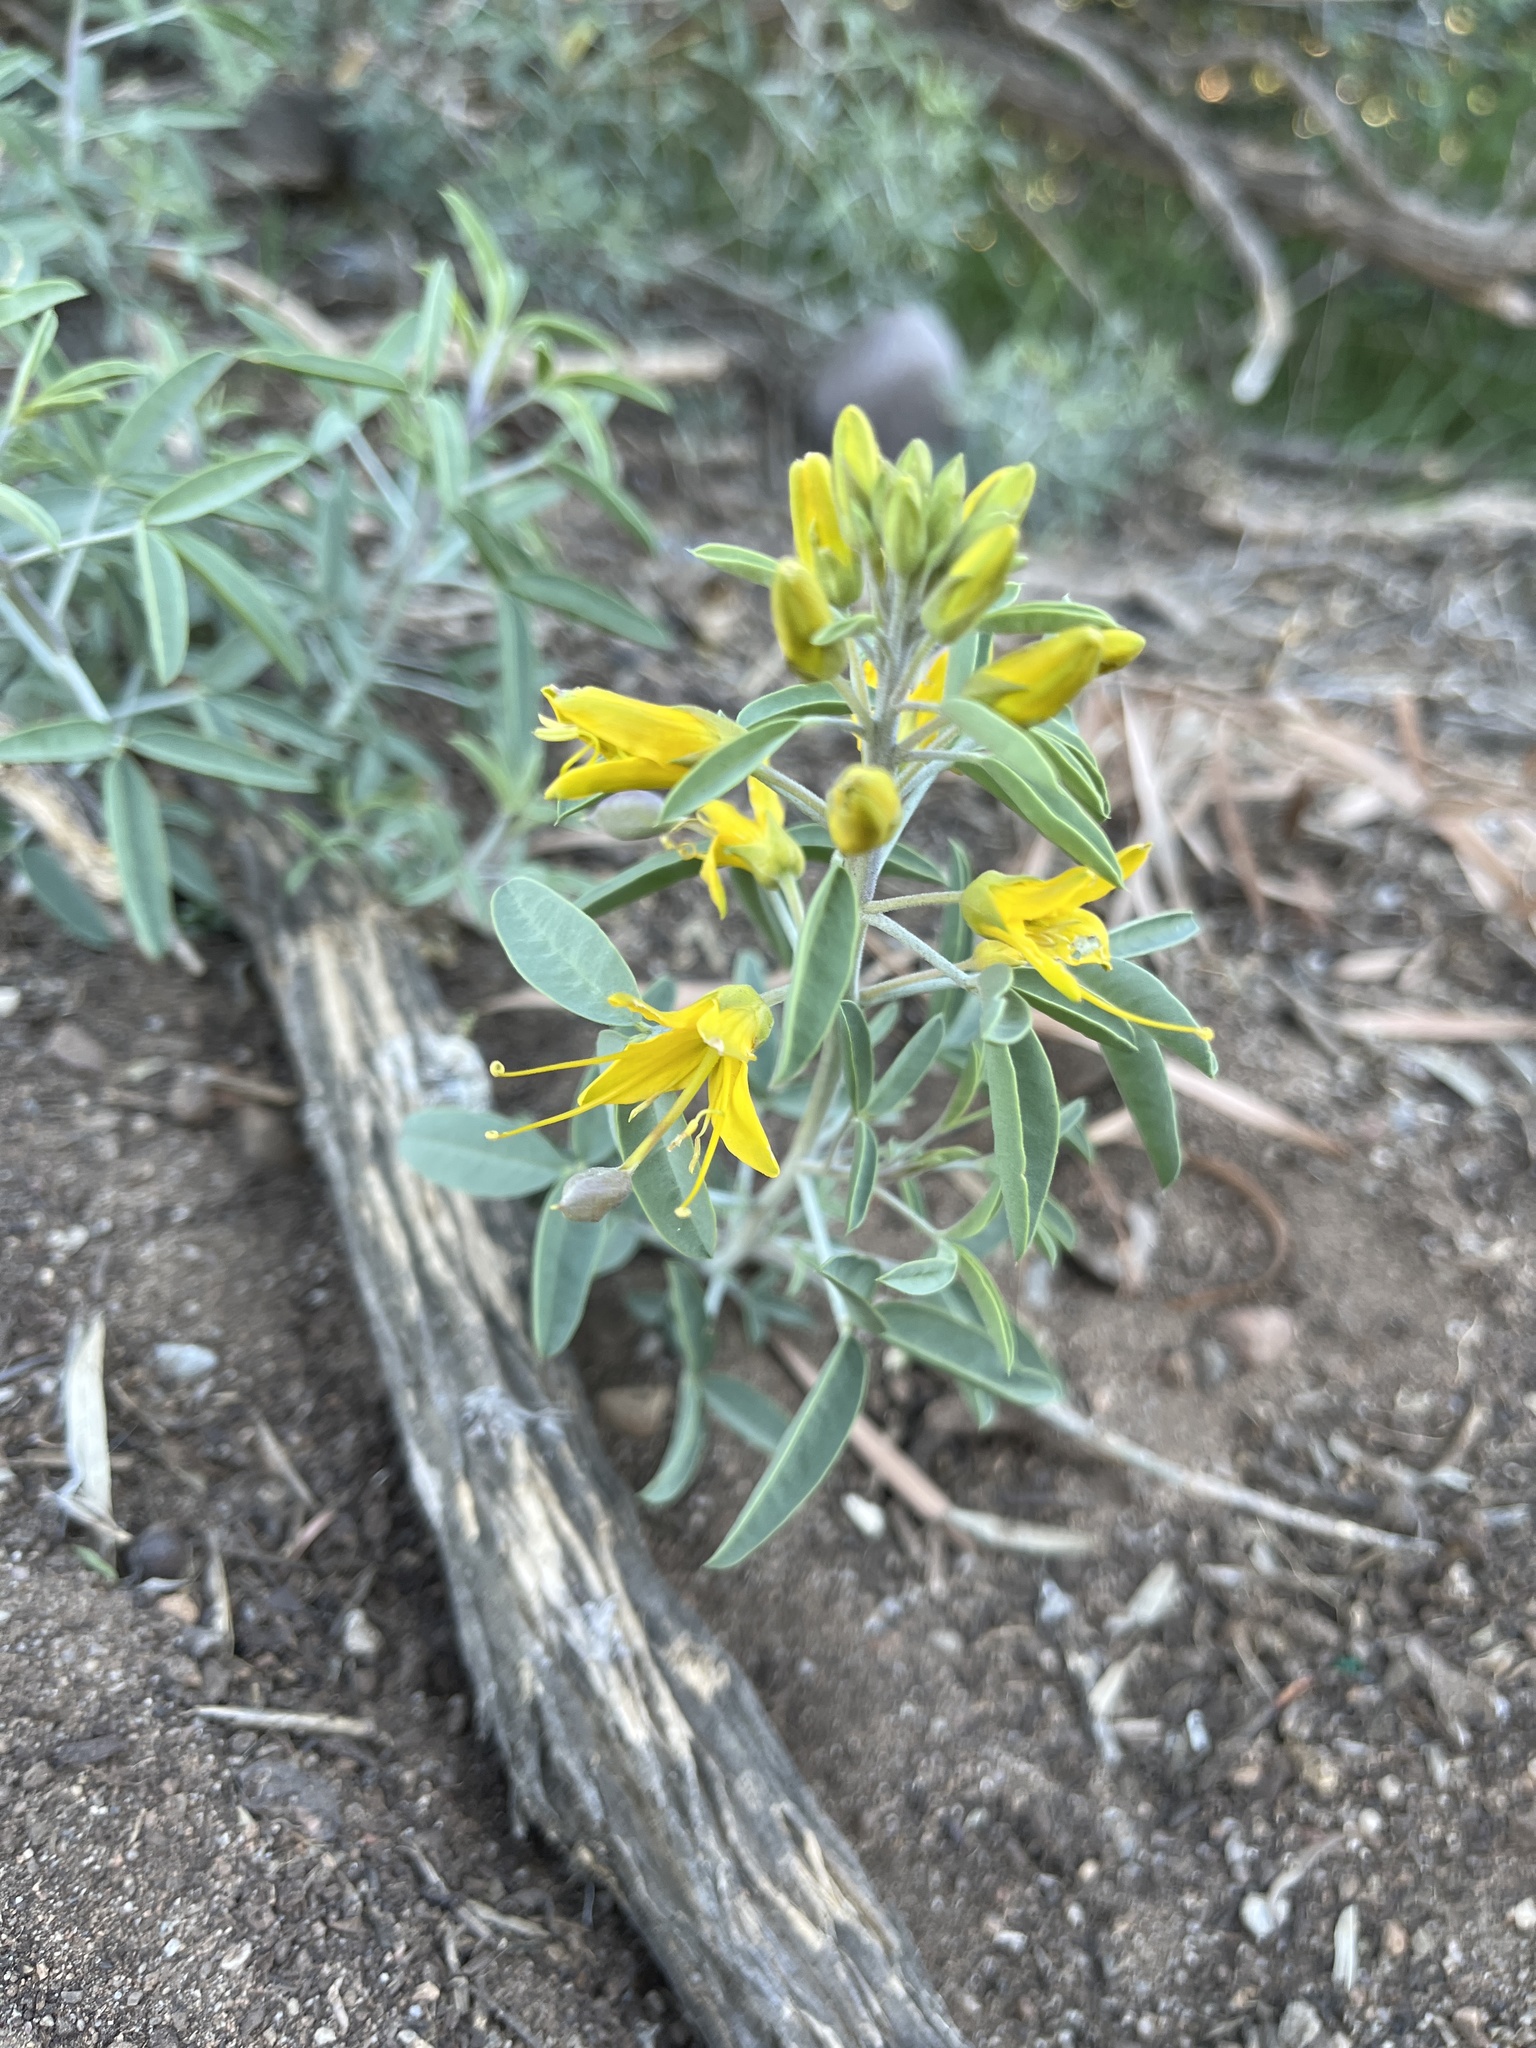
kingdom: Plantae
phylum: Tracheophyta
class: Magnoliopsida
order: Brassicales
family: Cleomaceae
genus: Cleomella
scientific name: Cleomella arborea
